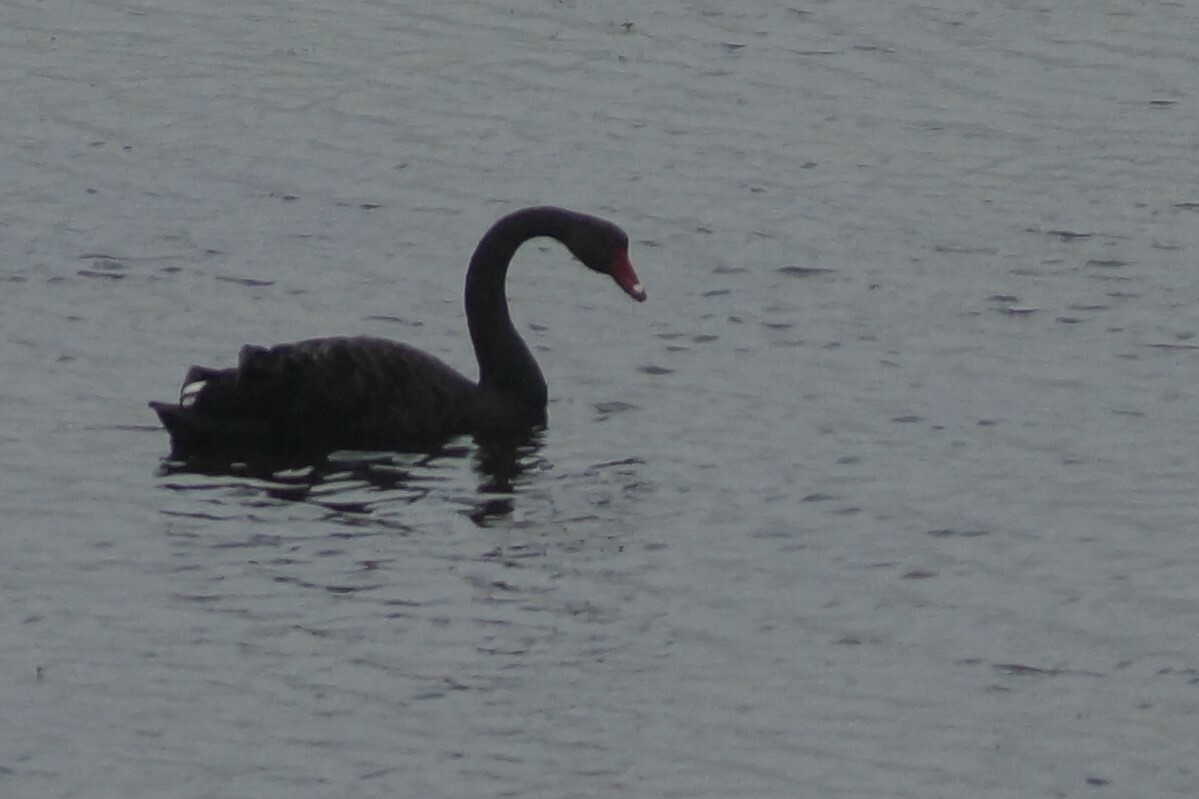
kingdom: Animalia
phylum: Chordata
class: Aves
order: Anseriformes
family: Anatidae
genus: Cygnus
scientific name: Cygnus atratus
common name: Black swan
